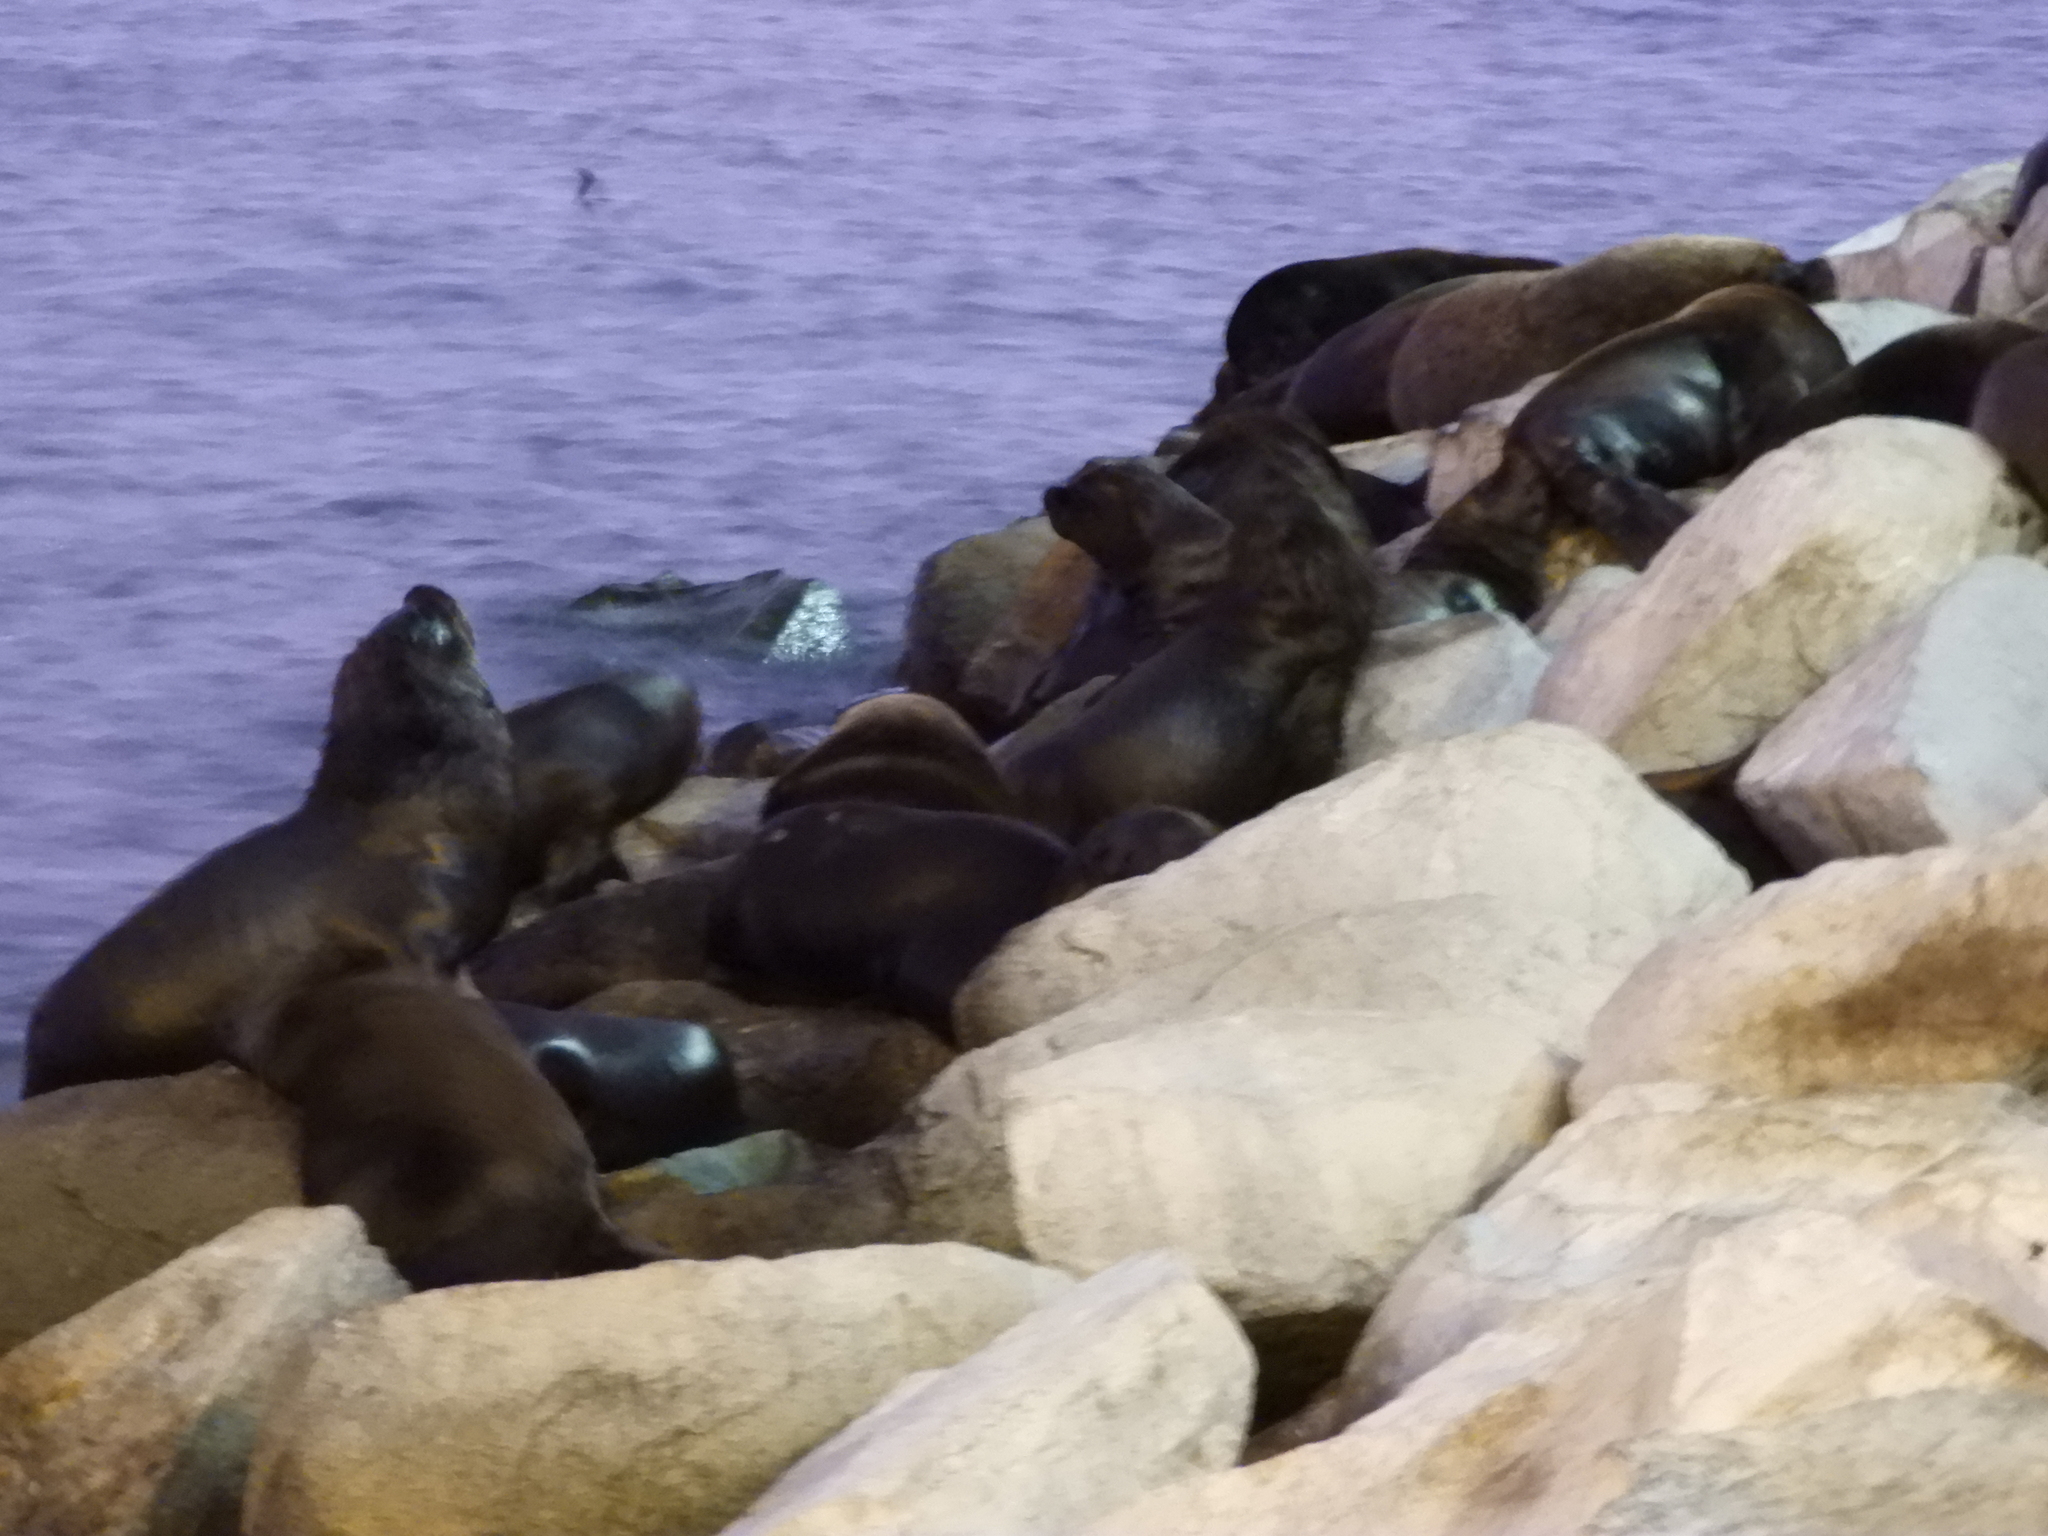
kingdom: Animalia
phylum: Chordata
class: Mammalia
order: Carnivora
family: Otariidae
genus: Otaria
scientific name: Otaria byronia
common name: South american sea lion
